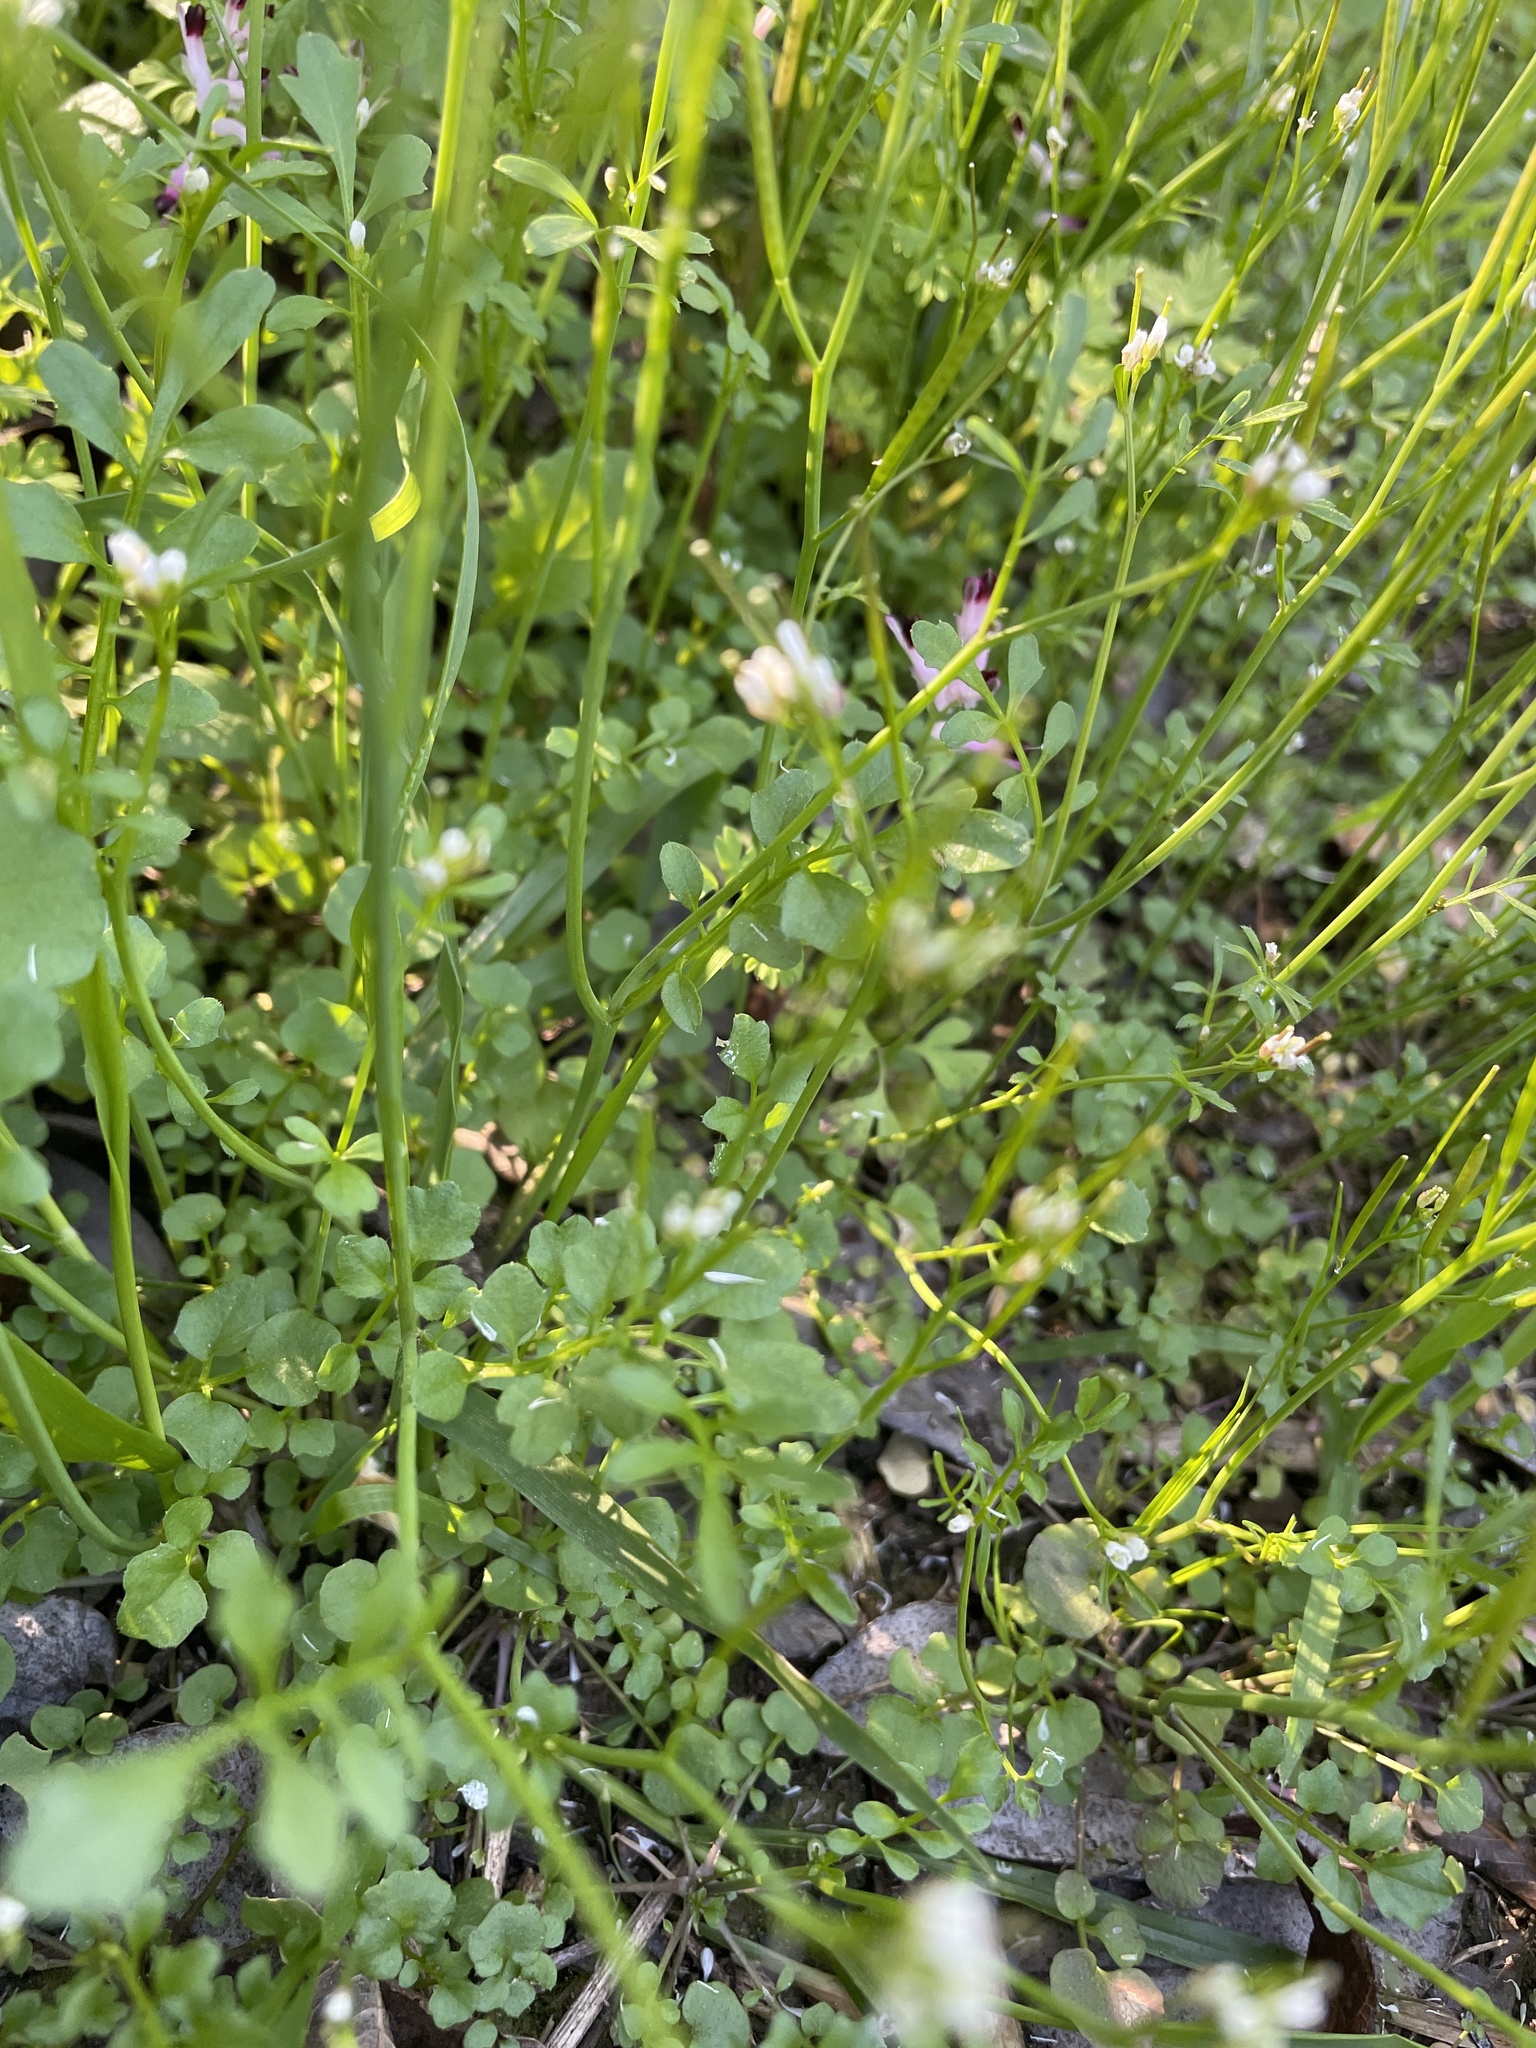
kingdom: Plantae
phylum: Tracheophyta
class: Magnoliopsida
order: Brassicales
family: Brassicaceae
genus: Cardamine
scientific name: Cardamine hirsuta
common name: Hairy bittercress
